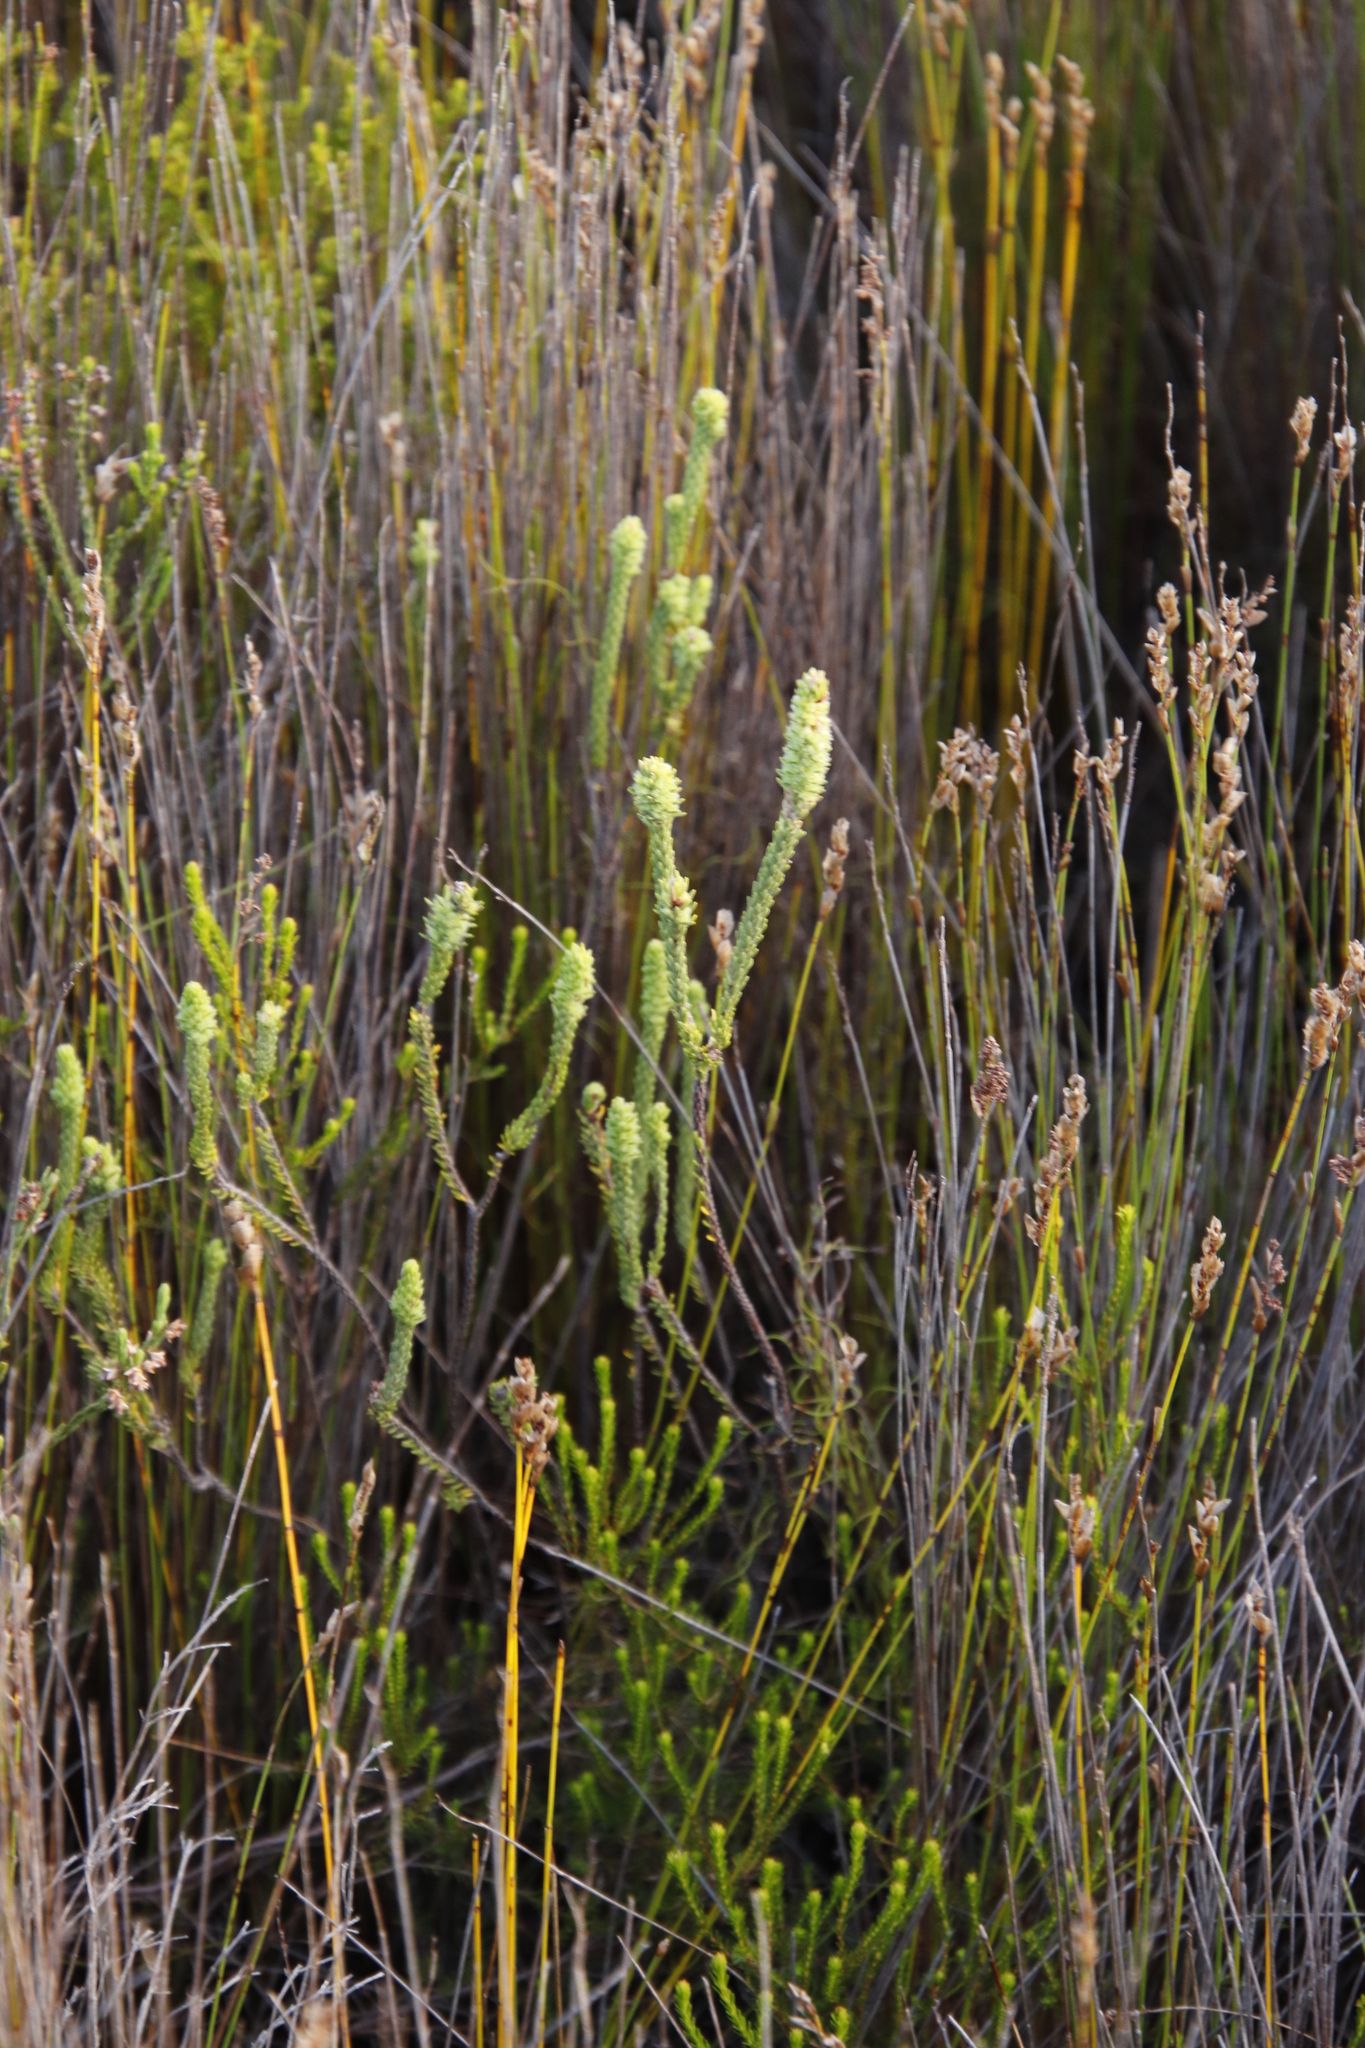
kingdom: Plantae
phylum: Tracheophyta
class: Magnoliopsida
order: Ericales
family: Ericaceae
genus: Erica
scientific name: Erica pyxidiflora
